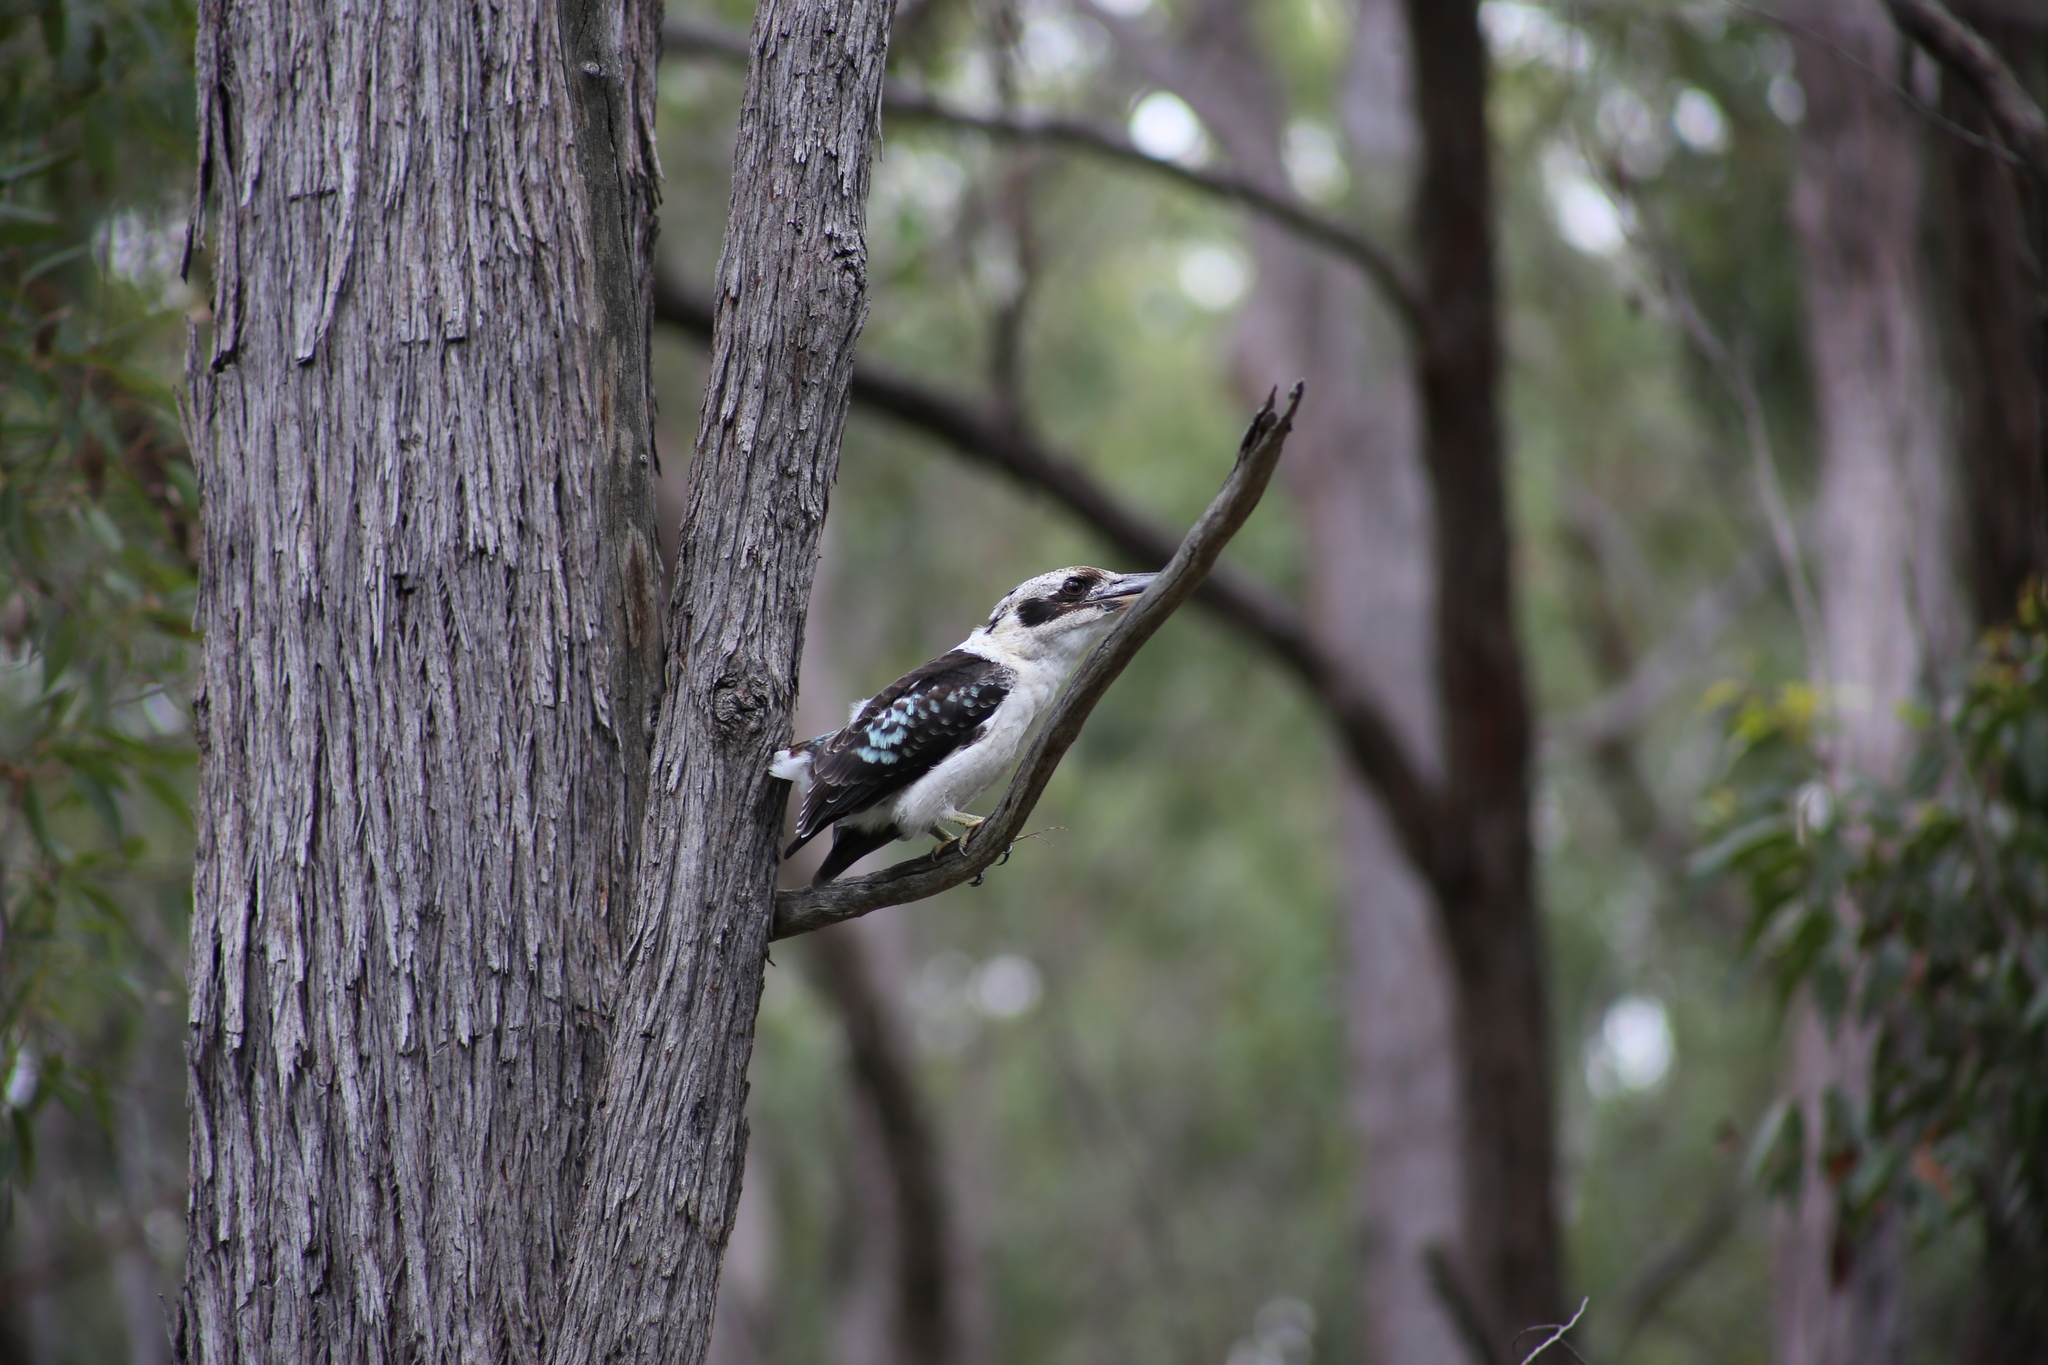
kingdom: Animalia
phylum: Chordata
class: Aves
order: Coraciiformes
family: Alcedinidae
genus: Dacelo
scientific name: Dacelo novaeguineae
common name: Laughing kookaburra
